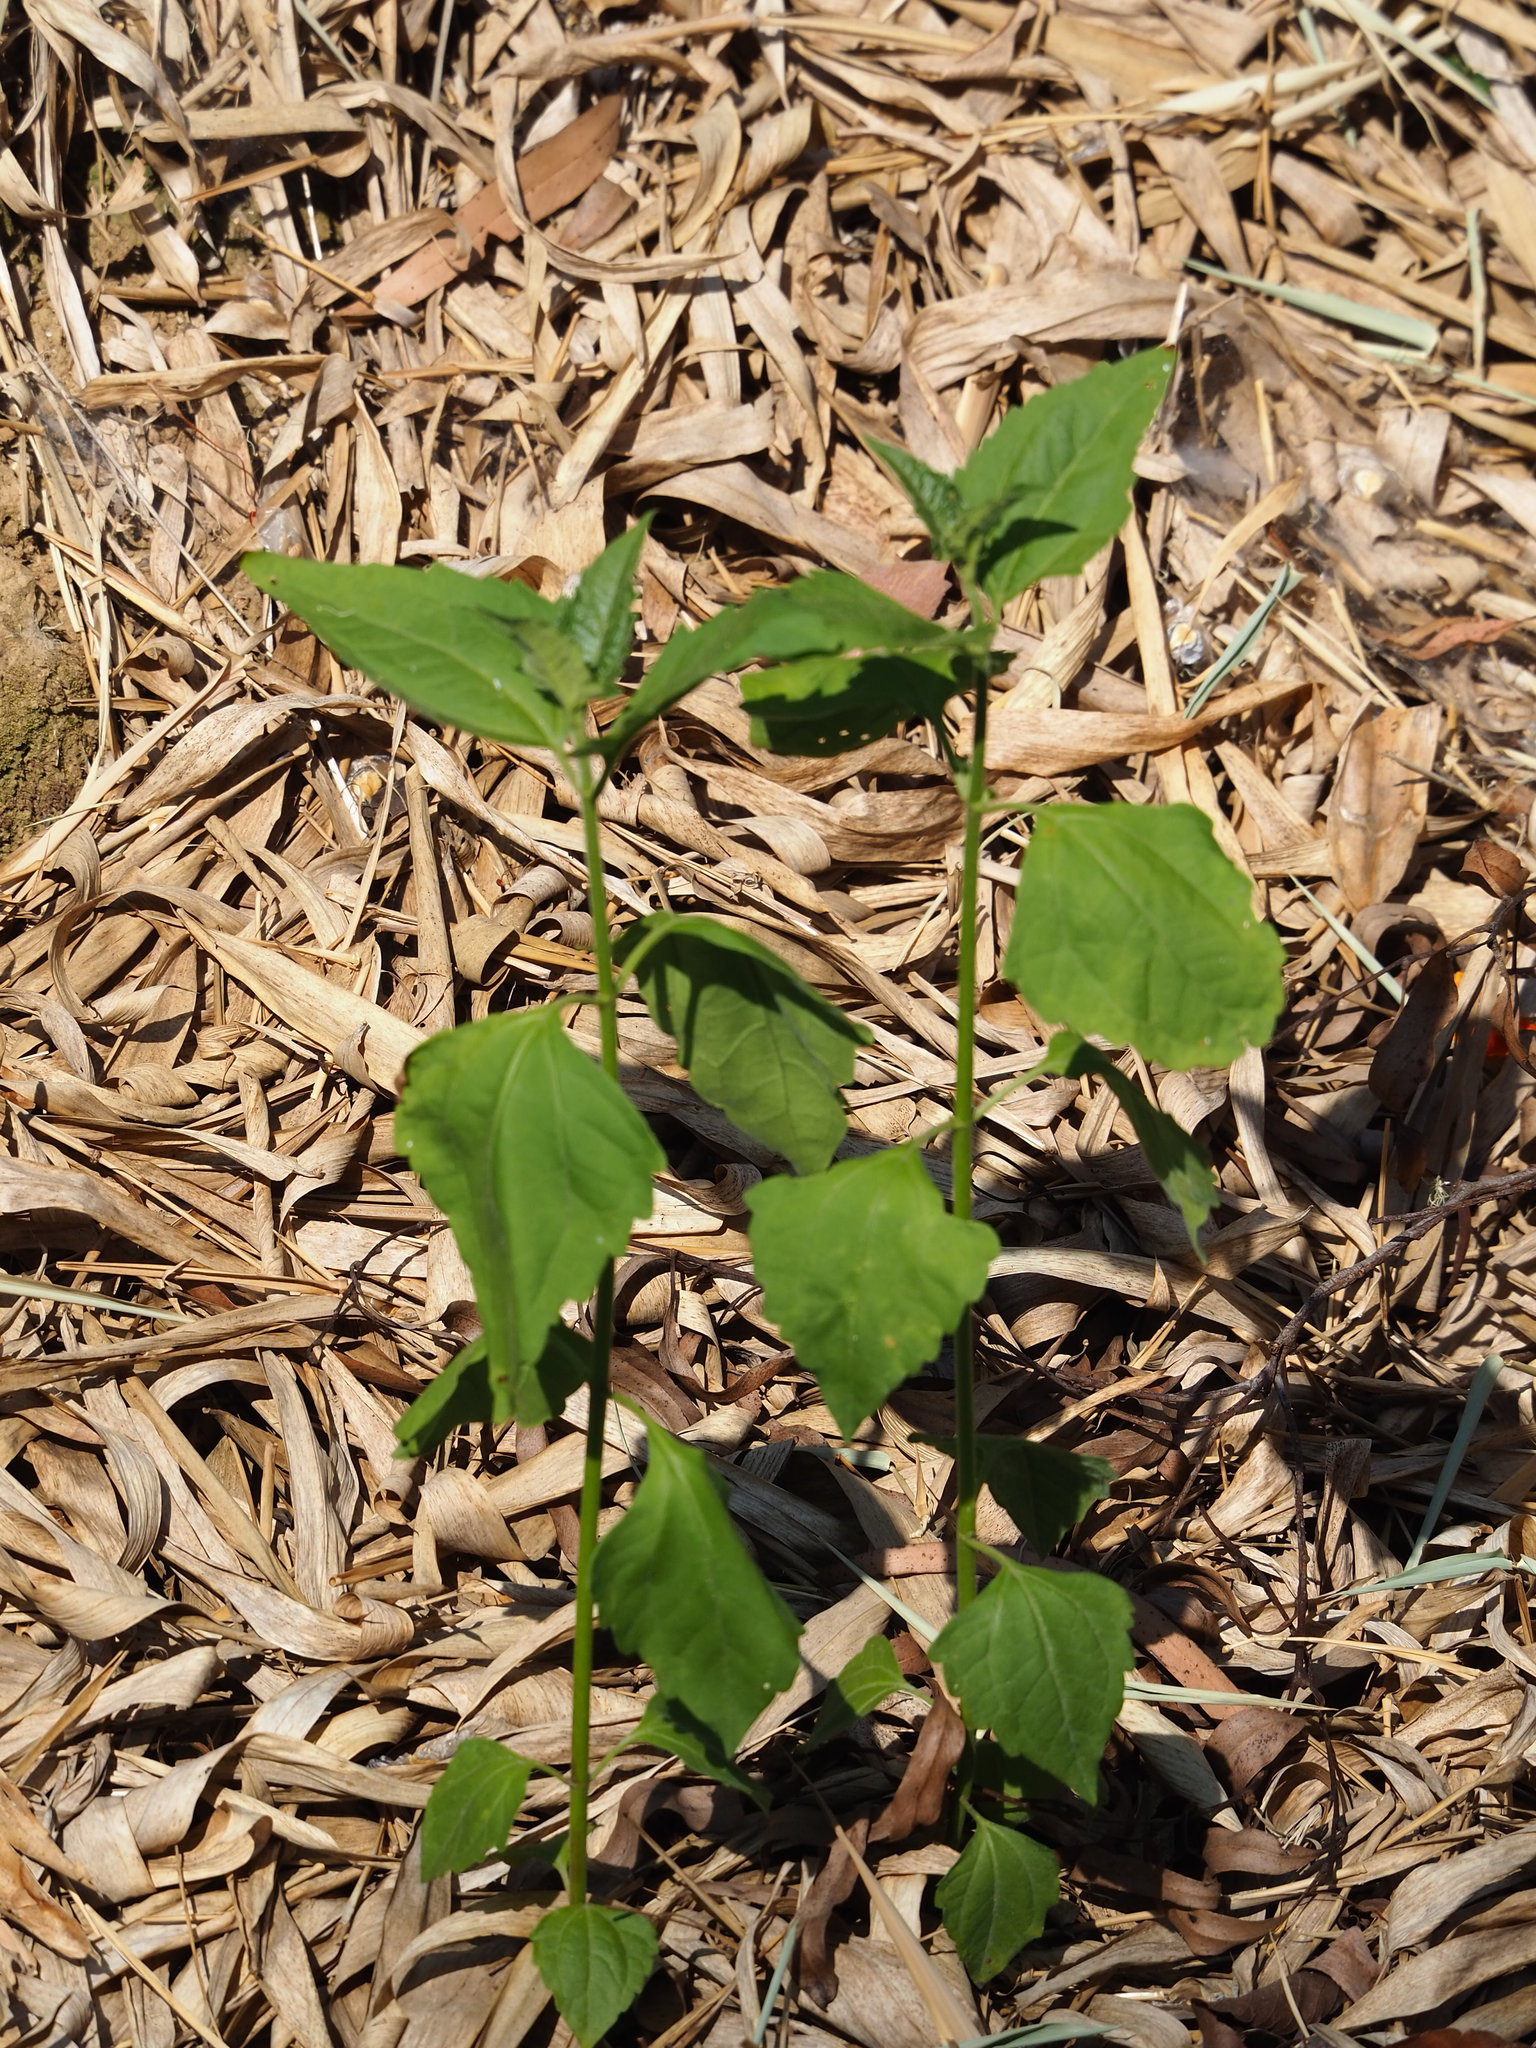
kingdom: Plantae
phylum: Tracheophyta
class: Magnoliopsida
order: Asterales
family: Asteraceae
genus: Chromolaena
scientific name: Chromolaena odorata
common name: Siamweed
